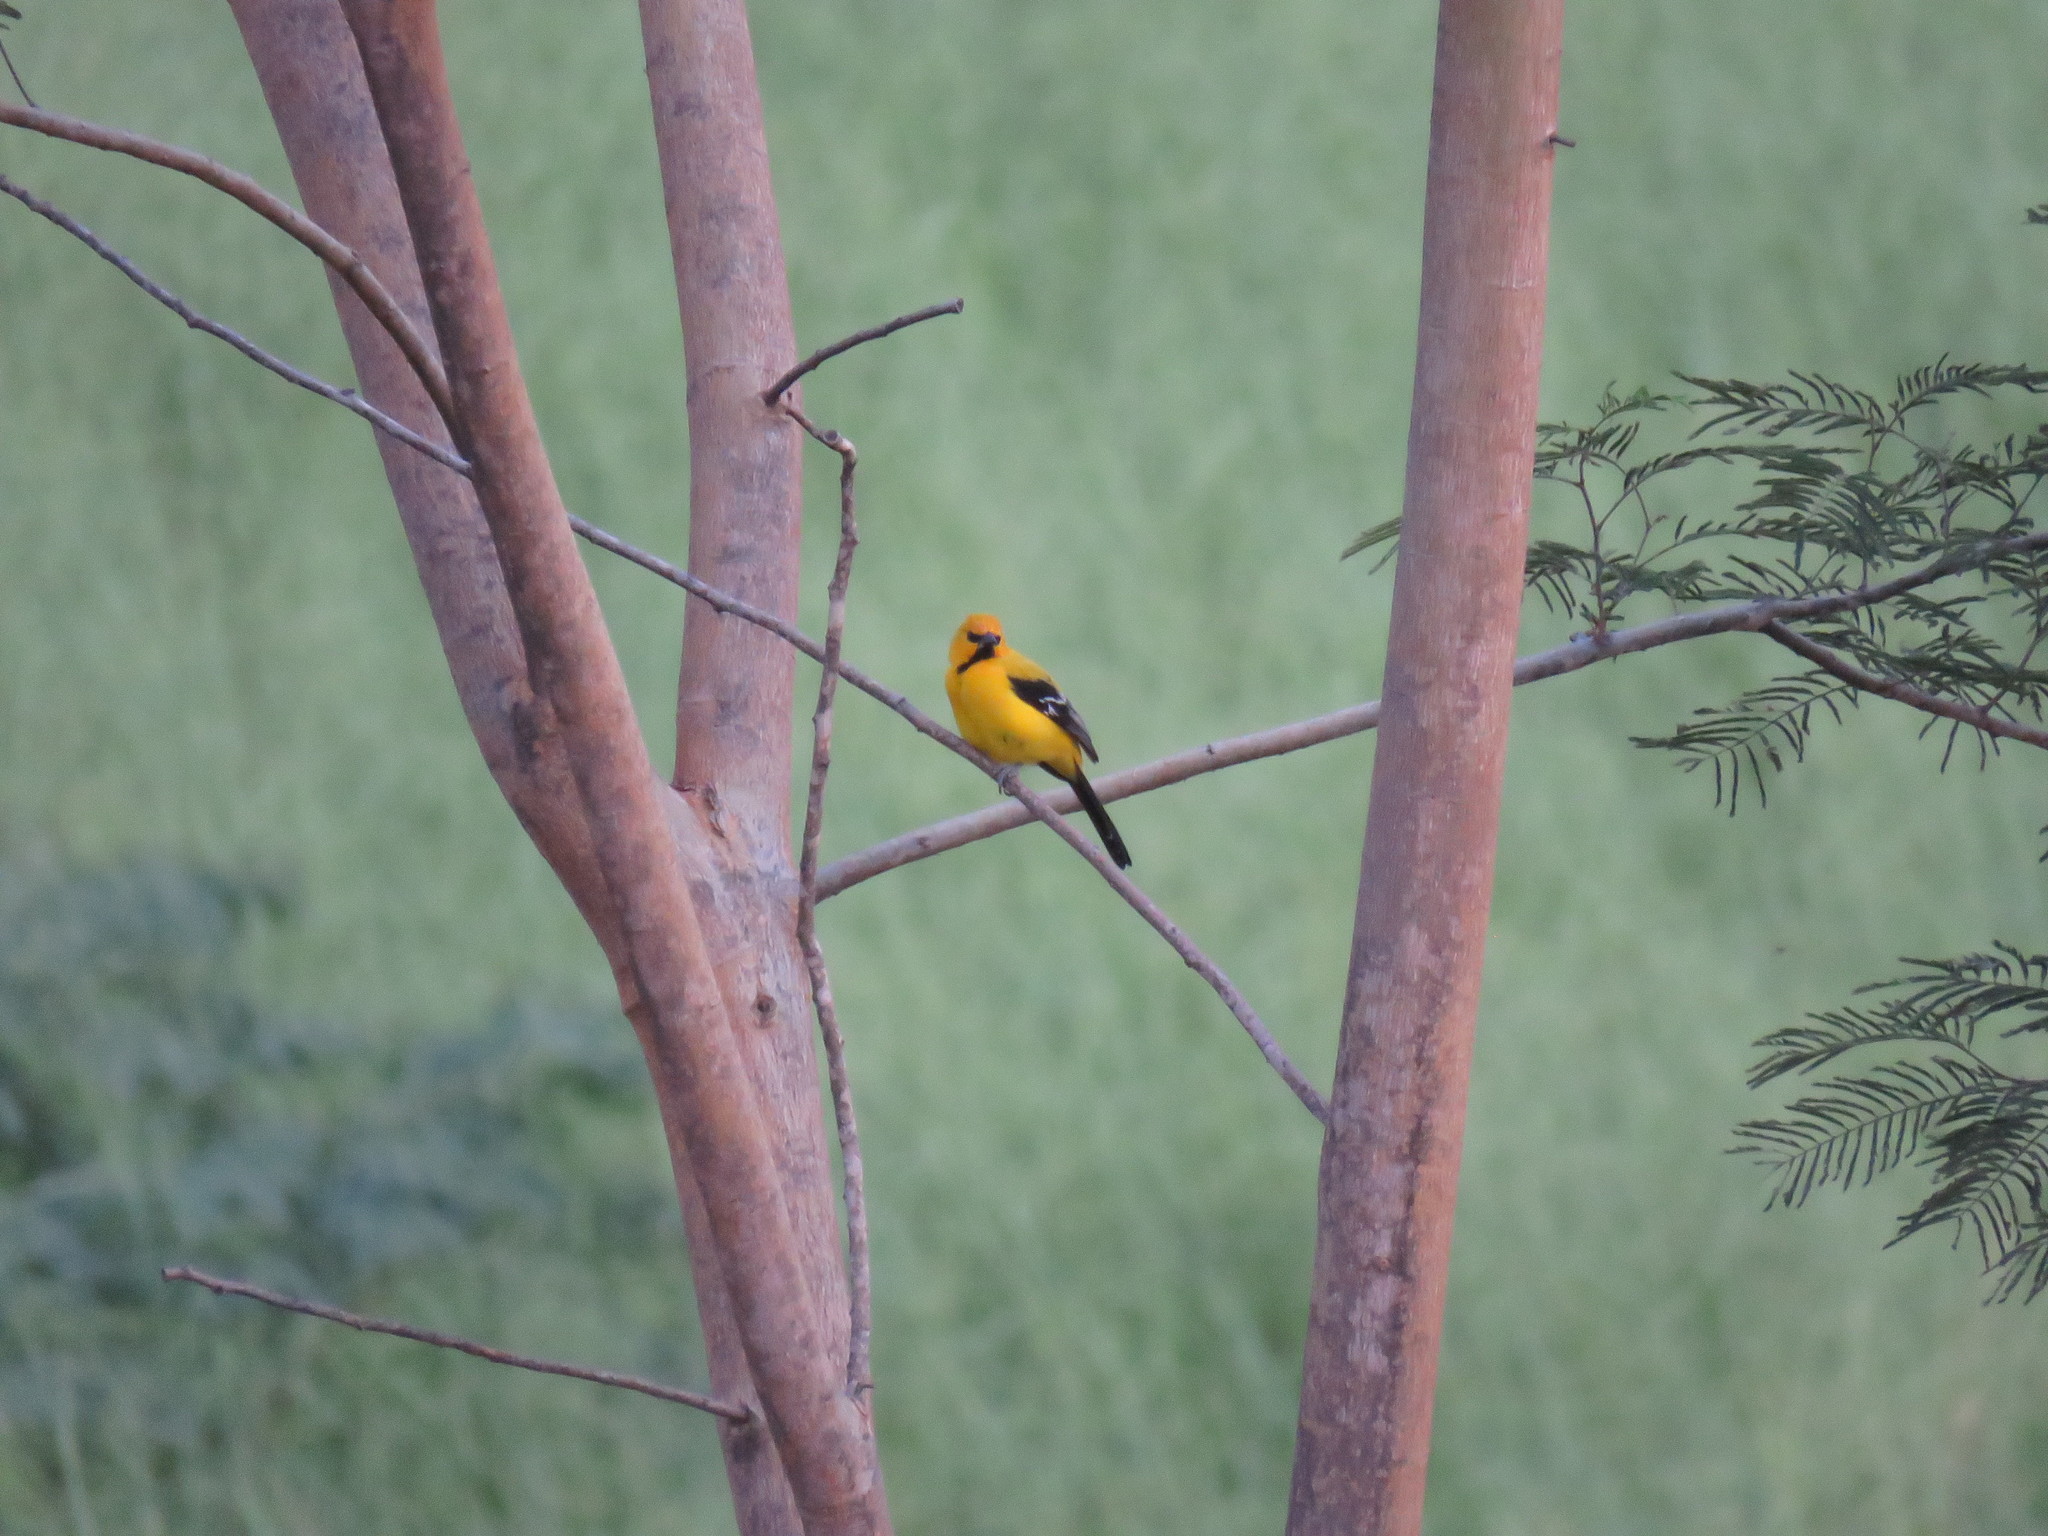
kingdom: Animalia
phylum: Chordata
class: Aves
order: Passeriformes
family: Icteridae
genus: Icterus
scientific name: Icterus nigrogularis
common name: Yellow oriole
